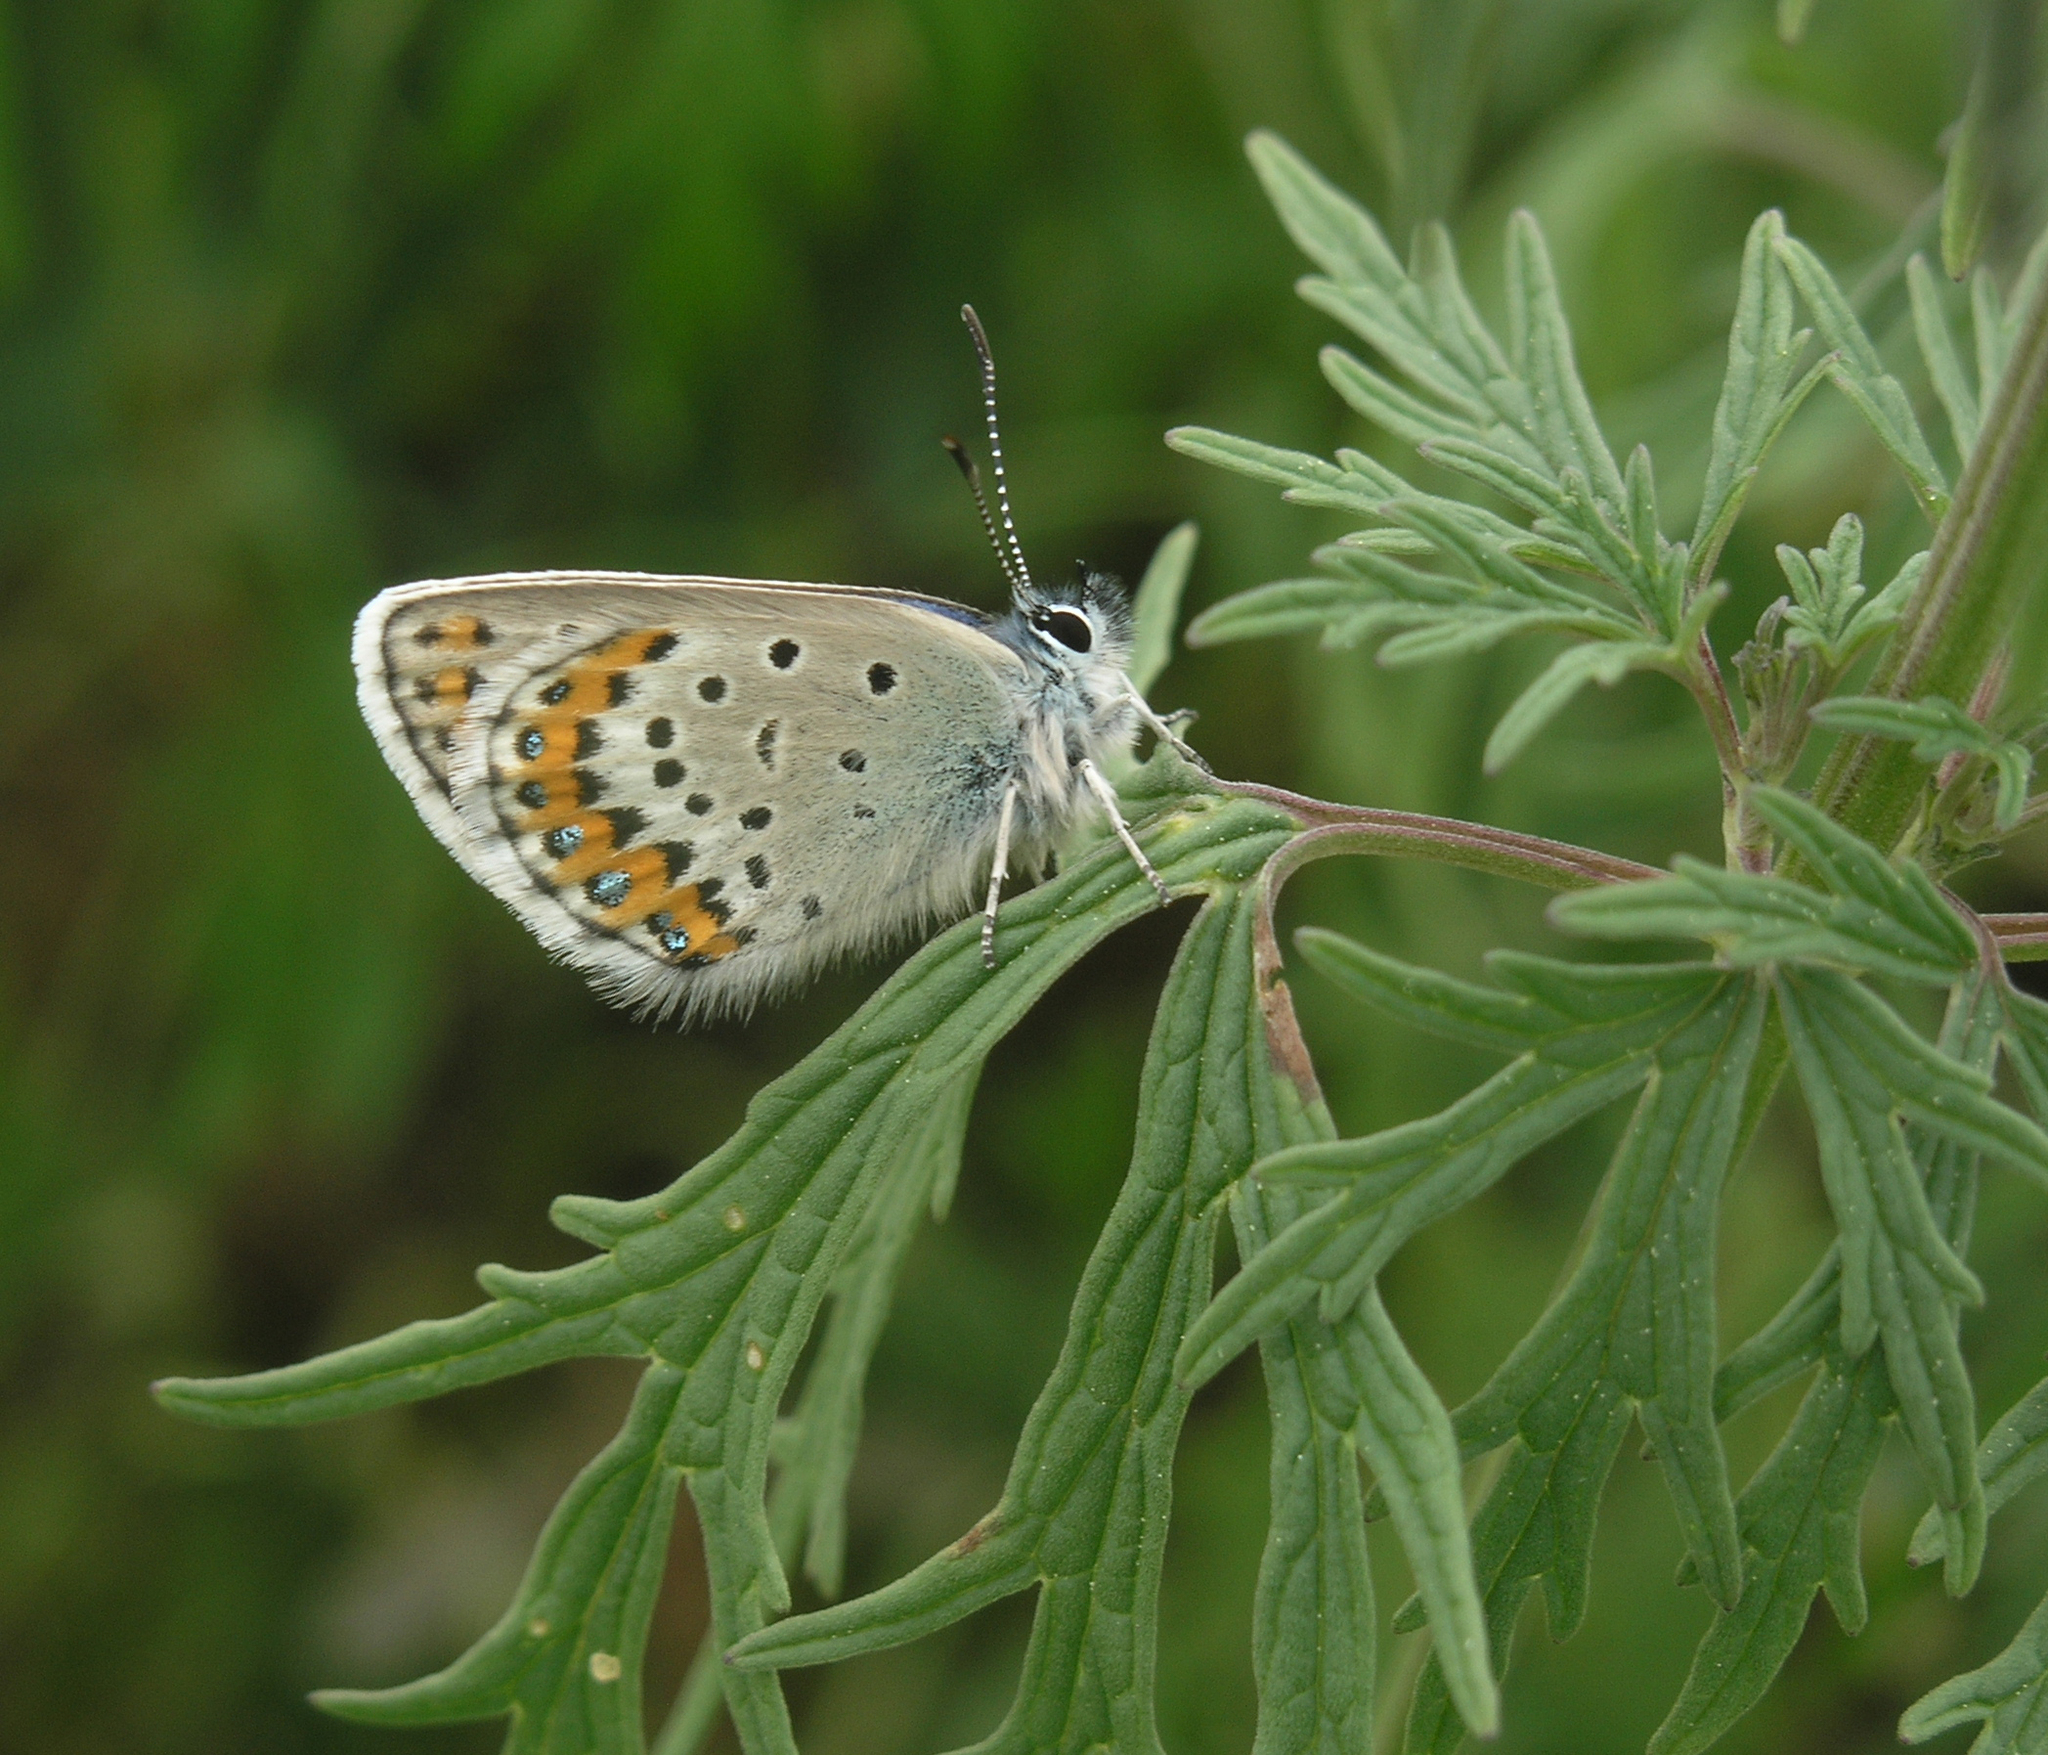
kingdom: Plantae
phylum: Tracheophyta
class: Magnoliopsida
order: Lamiales
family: Lamiaceae
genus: Leonurus
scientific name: Leonurus glaucescens
